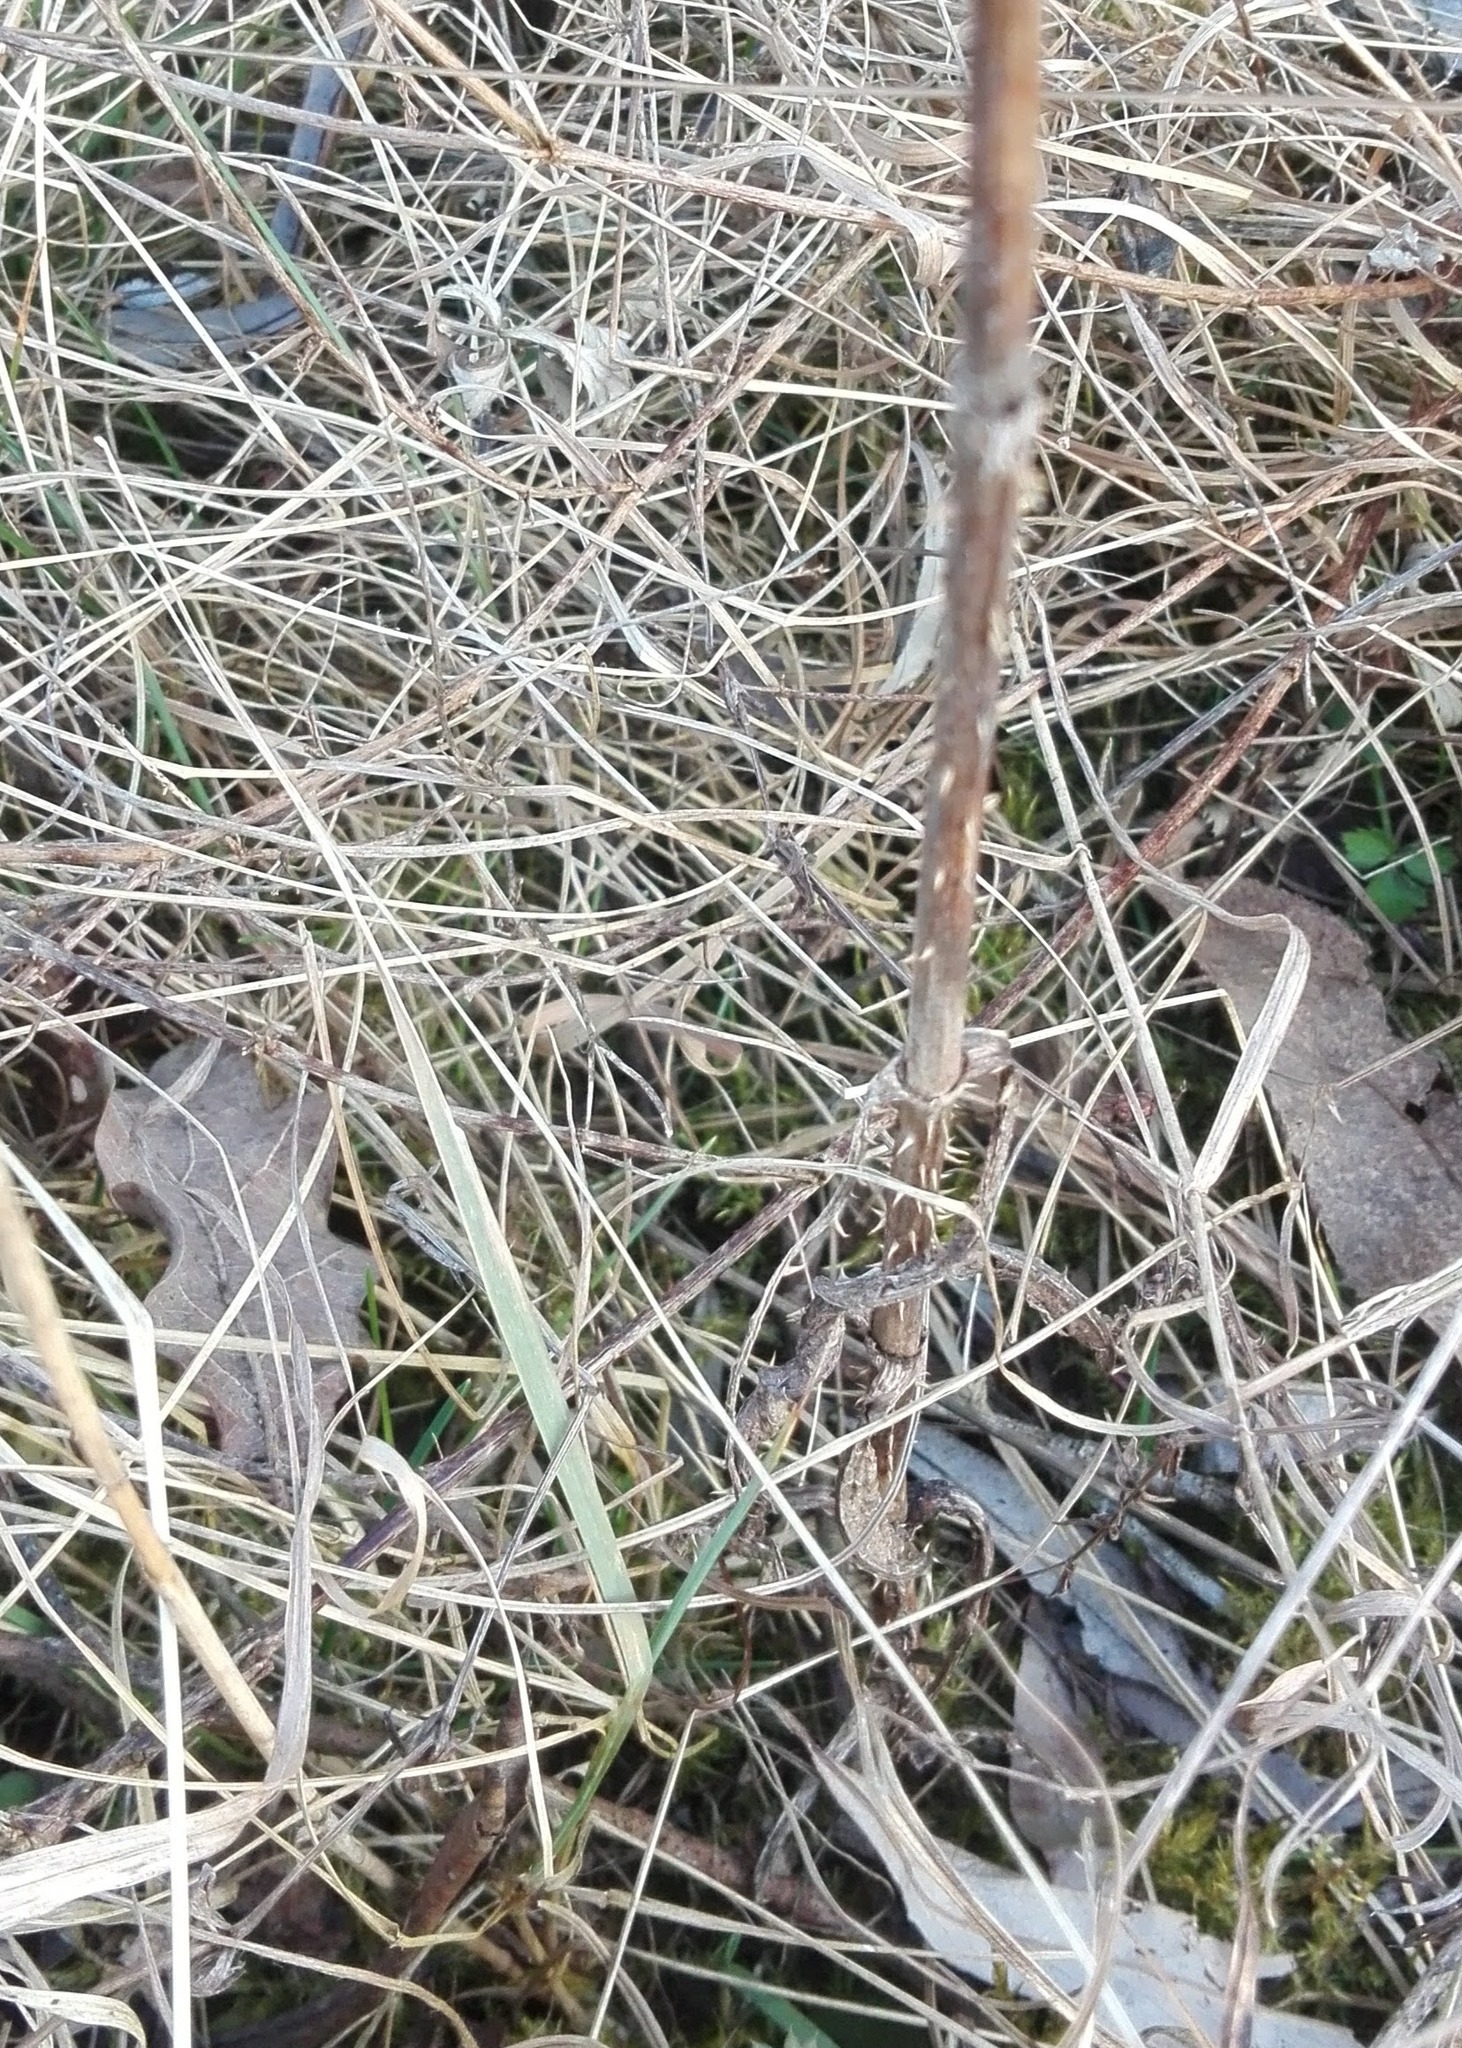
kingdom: Plantae
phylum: Tracheophyta
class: Magnoliopsida
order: Dipsacales
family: Caprifoliaceae
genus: Dipsacus
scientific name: Dipsacus fullonum
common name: Teasel
